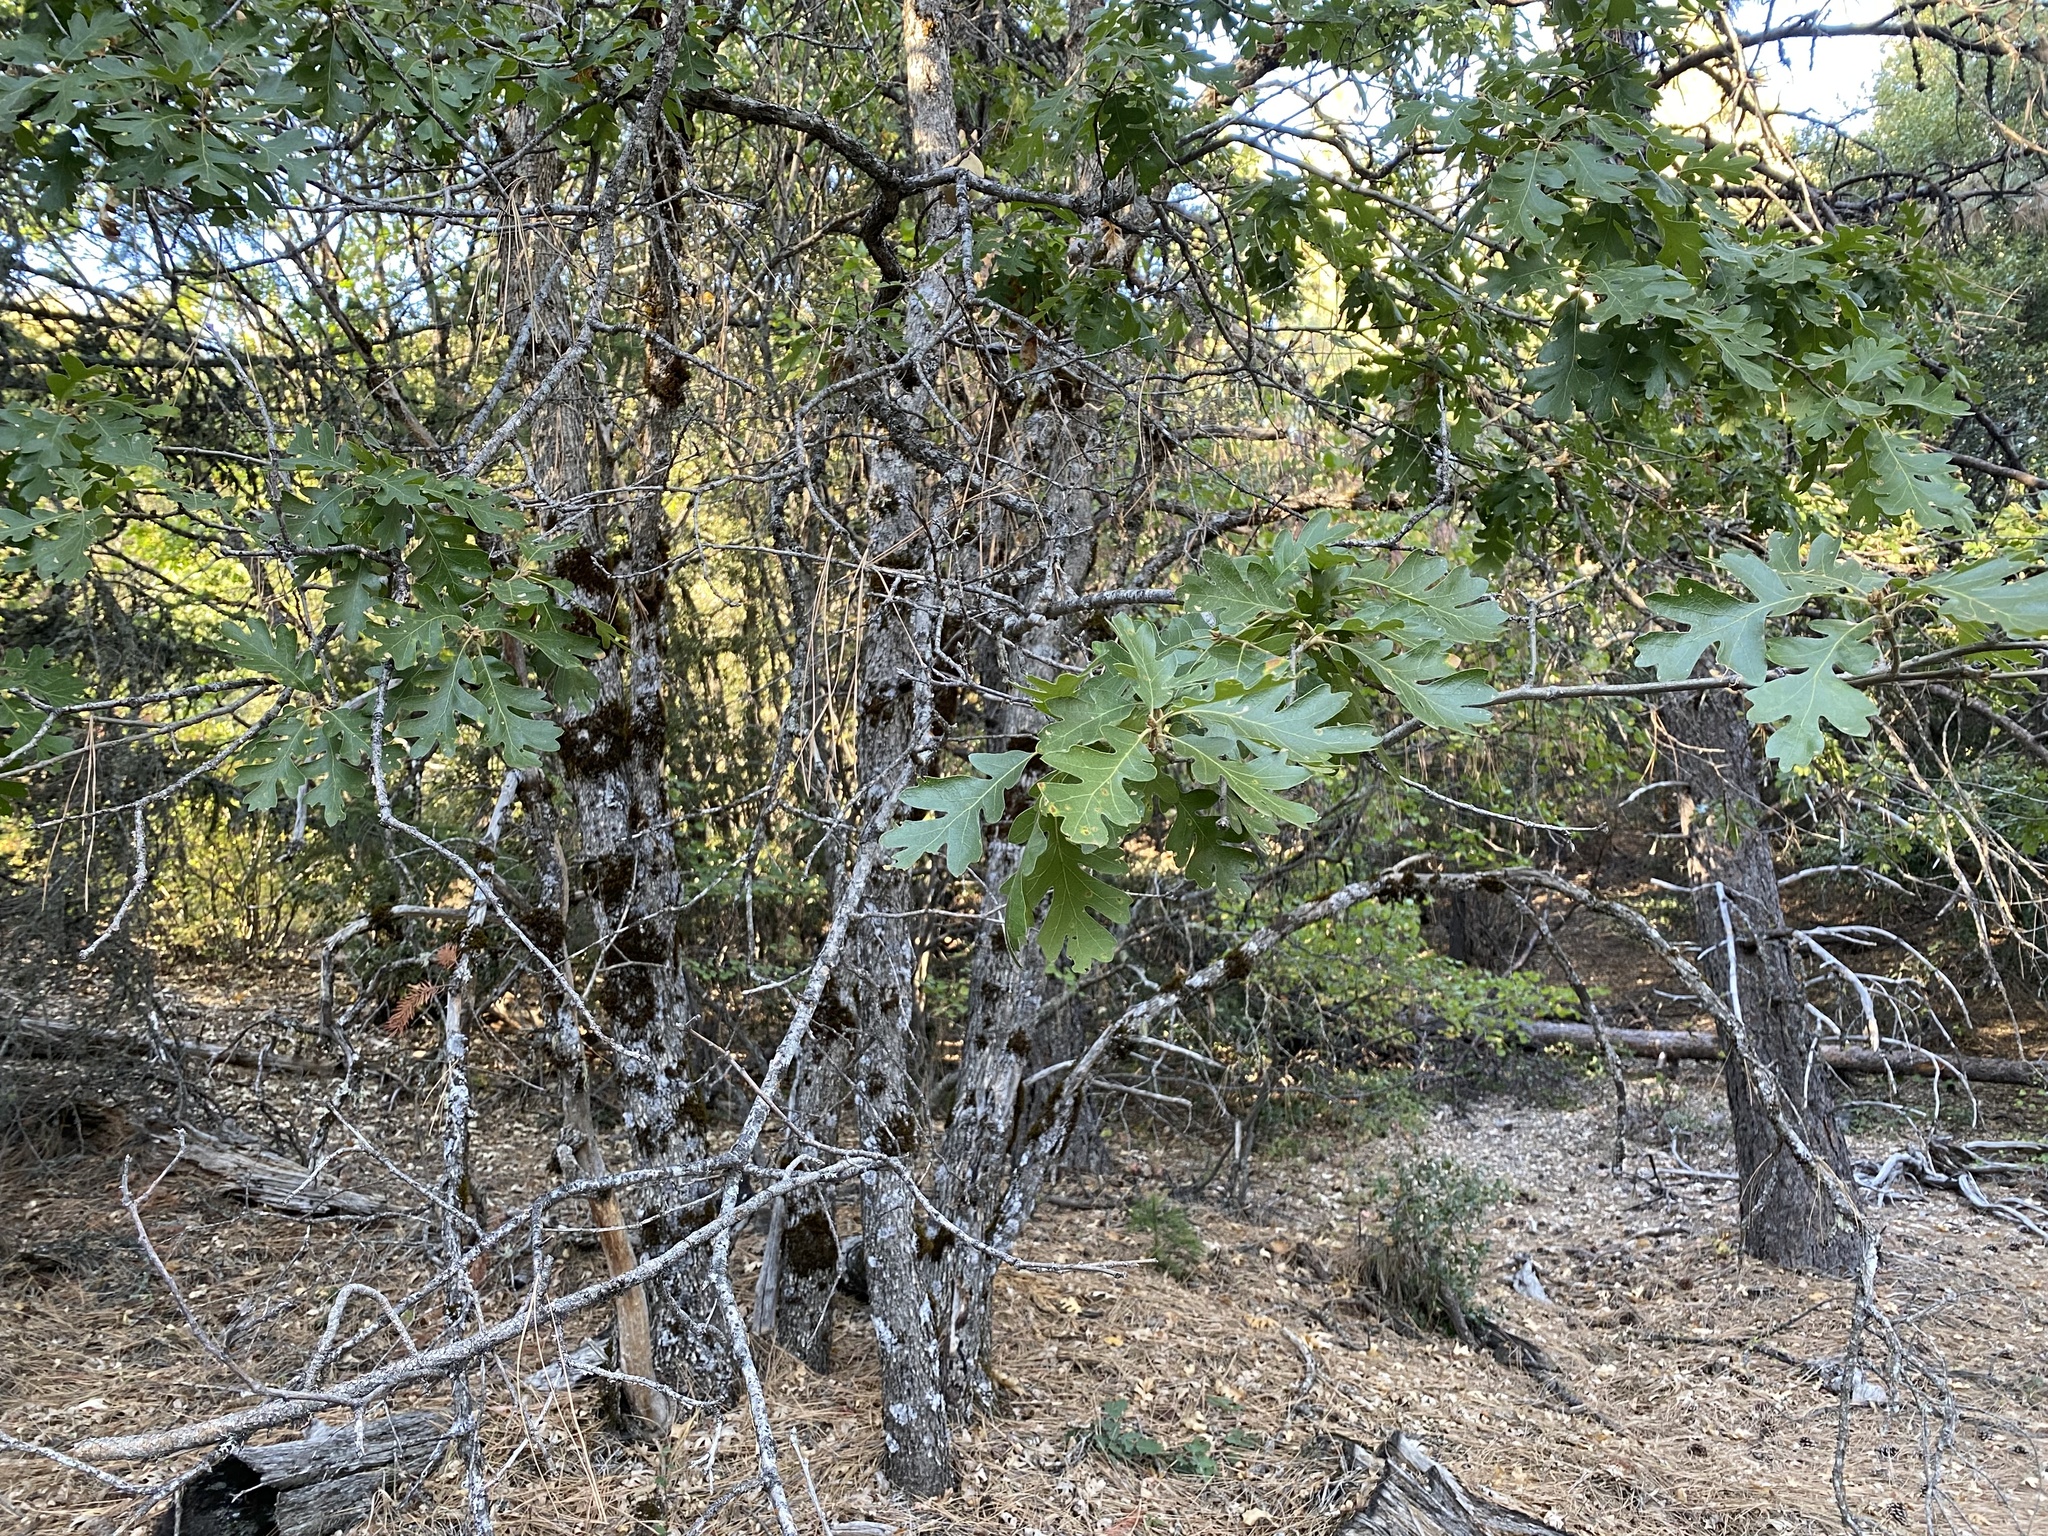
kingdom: Plantae
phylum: Tracheophyta
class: Magnoliopsida
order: Fagales
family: Fagaceae
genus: Quercus
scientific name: Quercus garryana
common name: Garry oak
